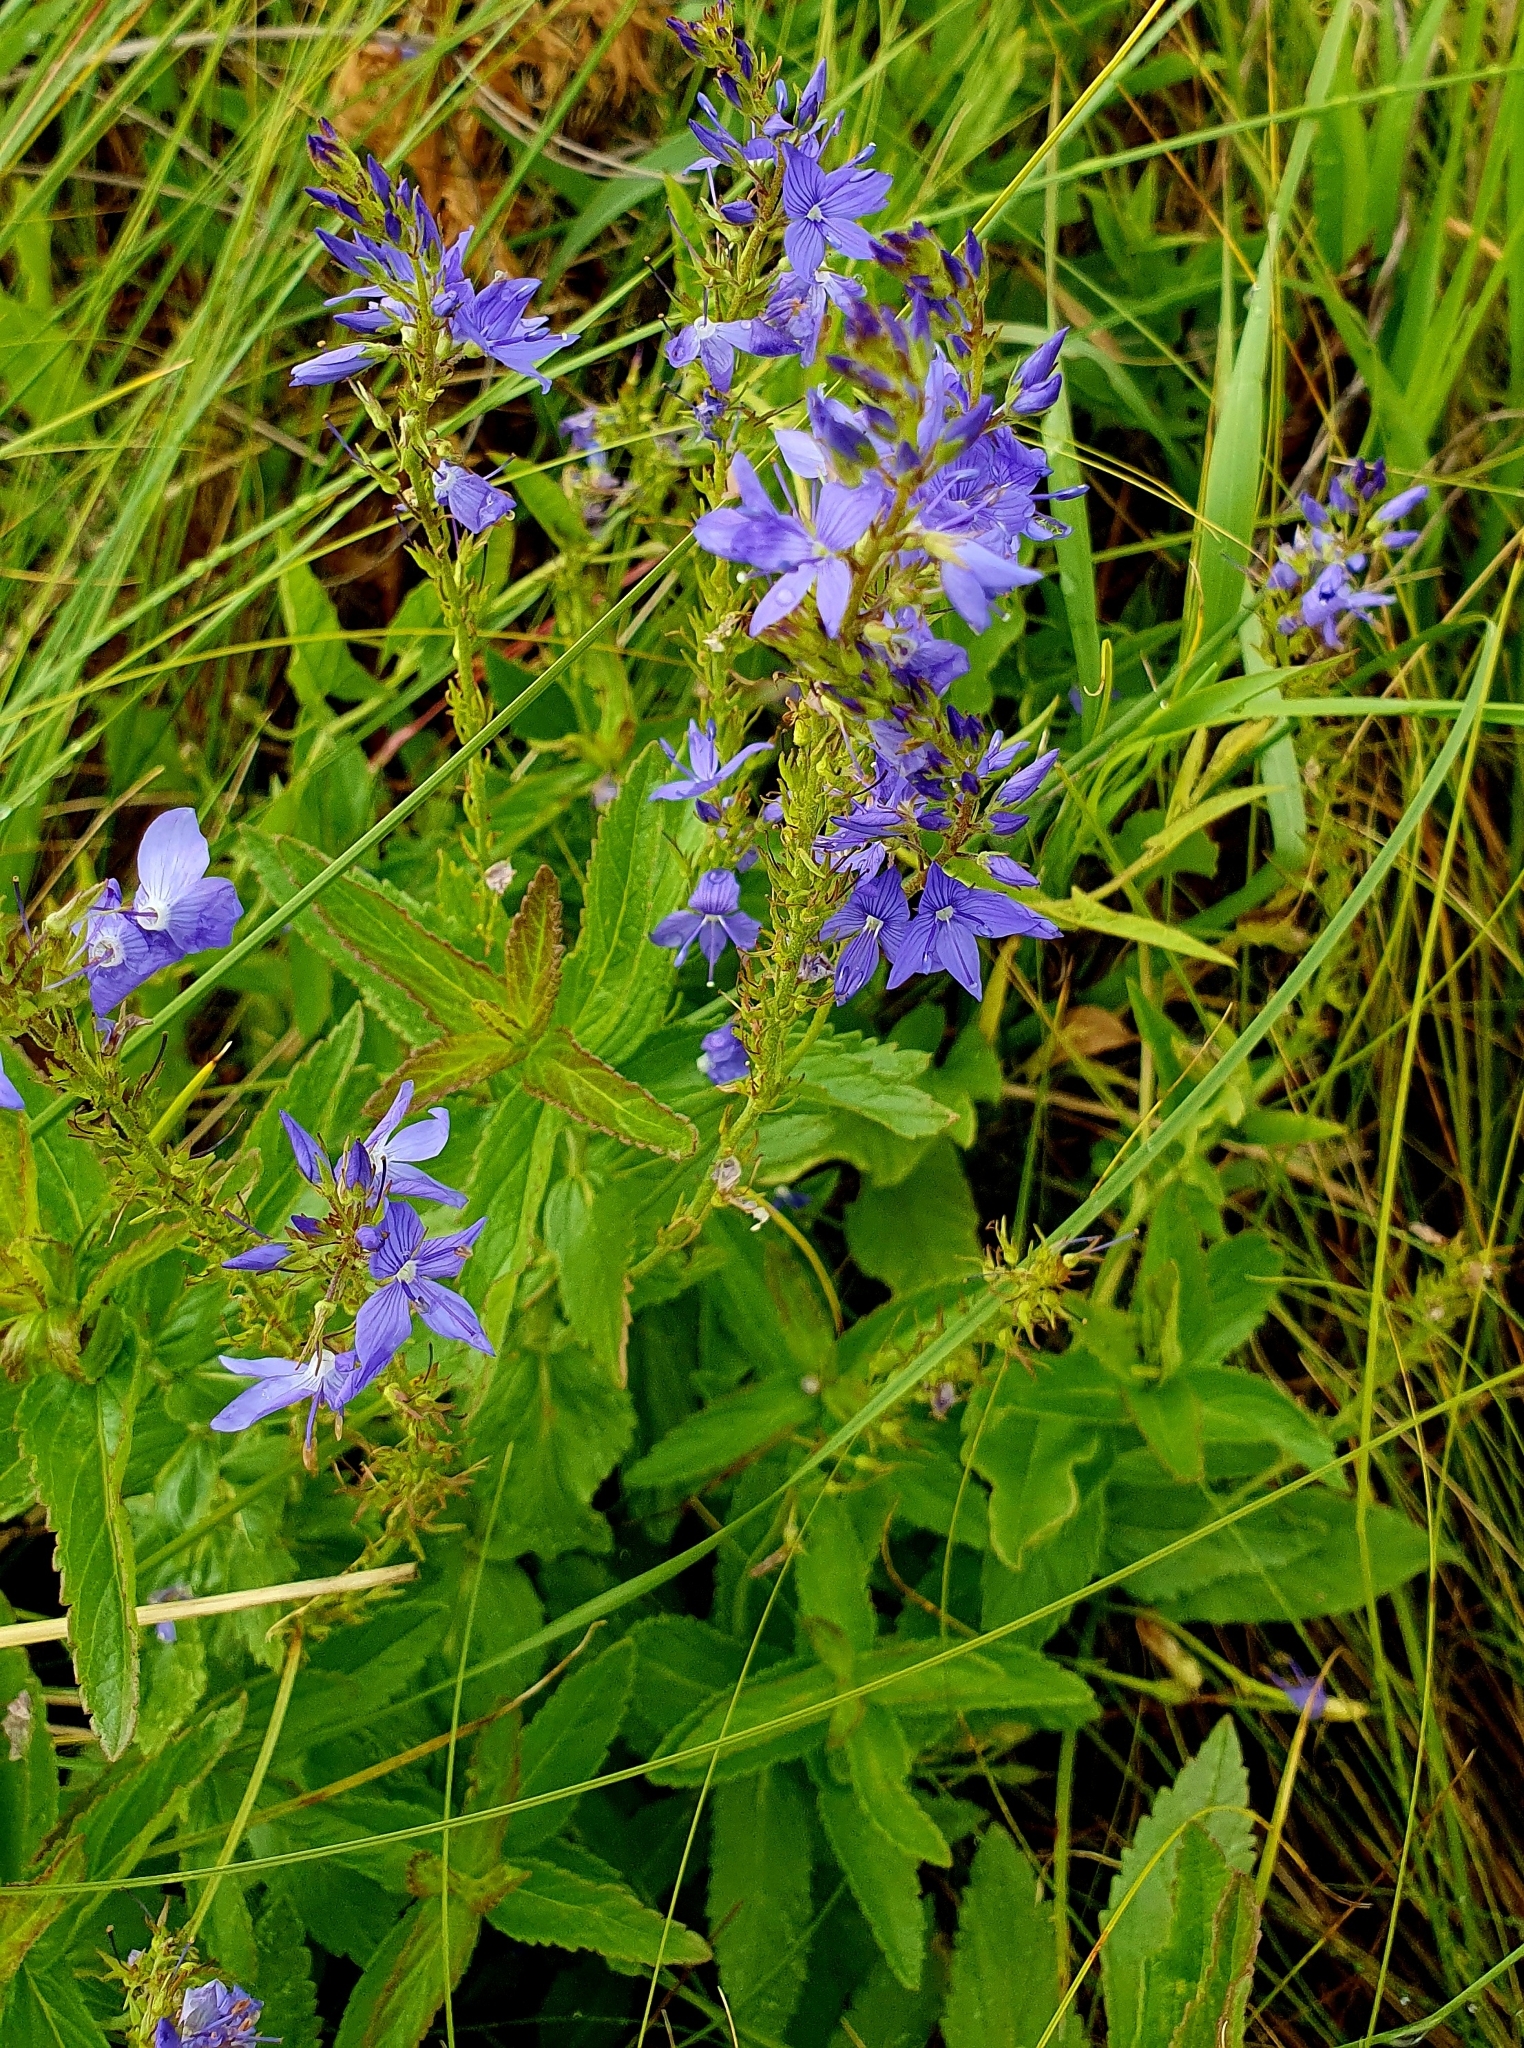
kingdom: Plantae
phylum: Tracheophyta
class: Magnoliopsida
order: Lamiales
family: Plantaginaceae
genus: Veronica
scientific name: Veronica teucrium
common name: Large speedwell
